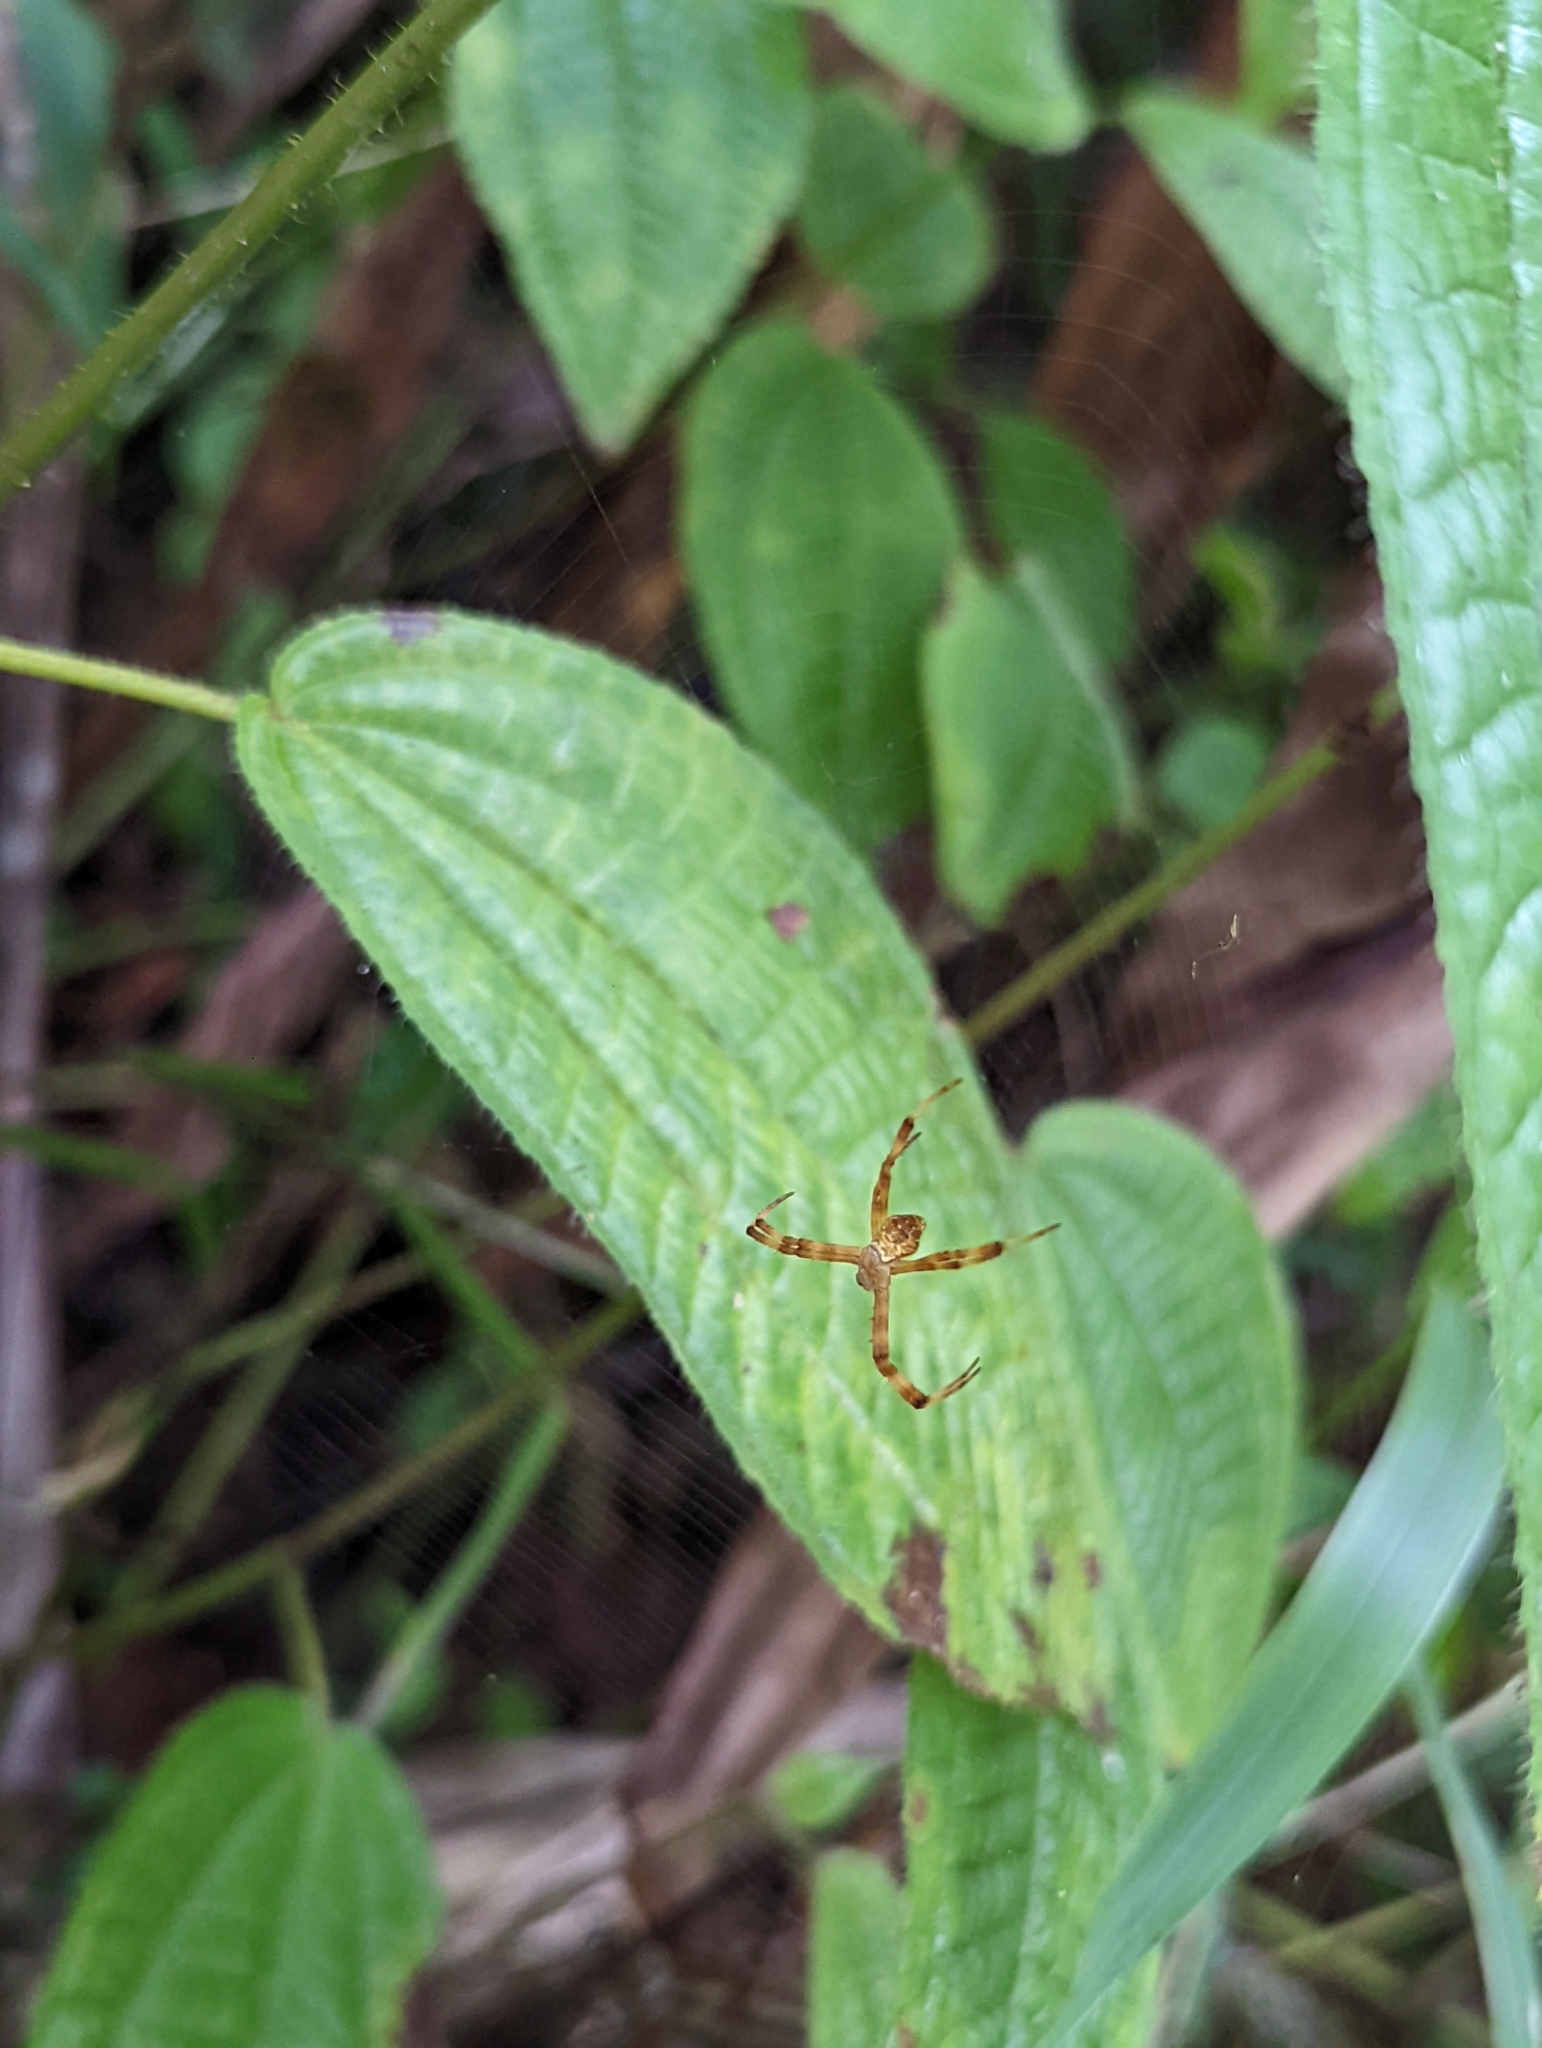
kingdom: Animalia
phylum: Arthropoda
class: Arachnida
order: Araneae
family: Araneidae
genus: Argiope
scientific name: Argiope pentagona
